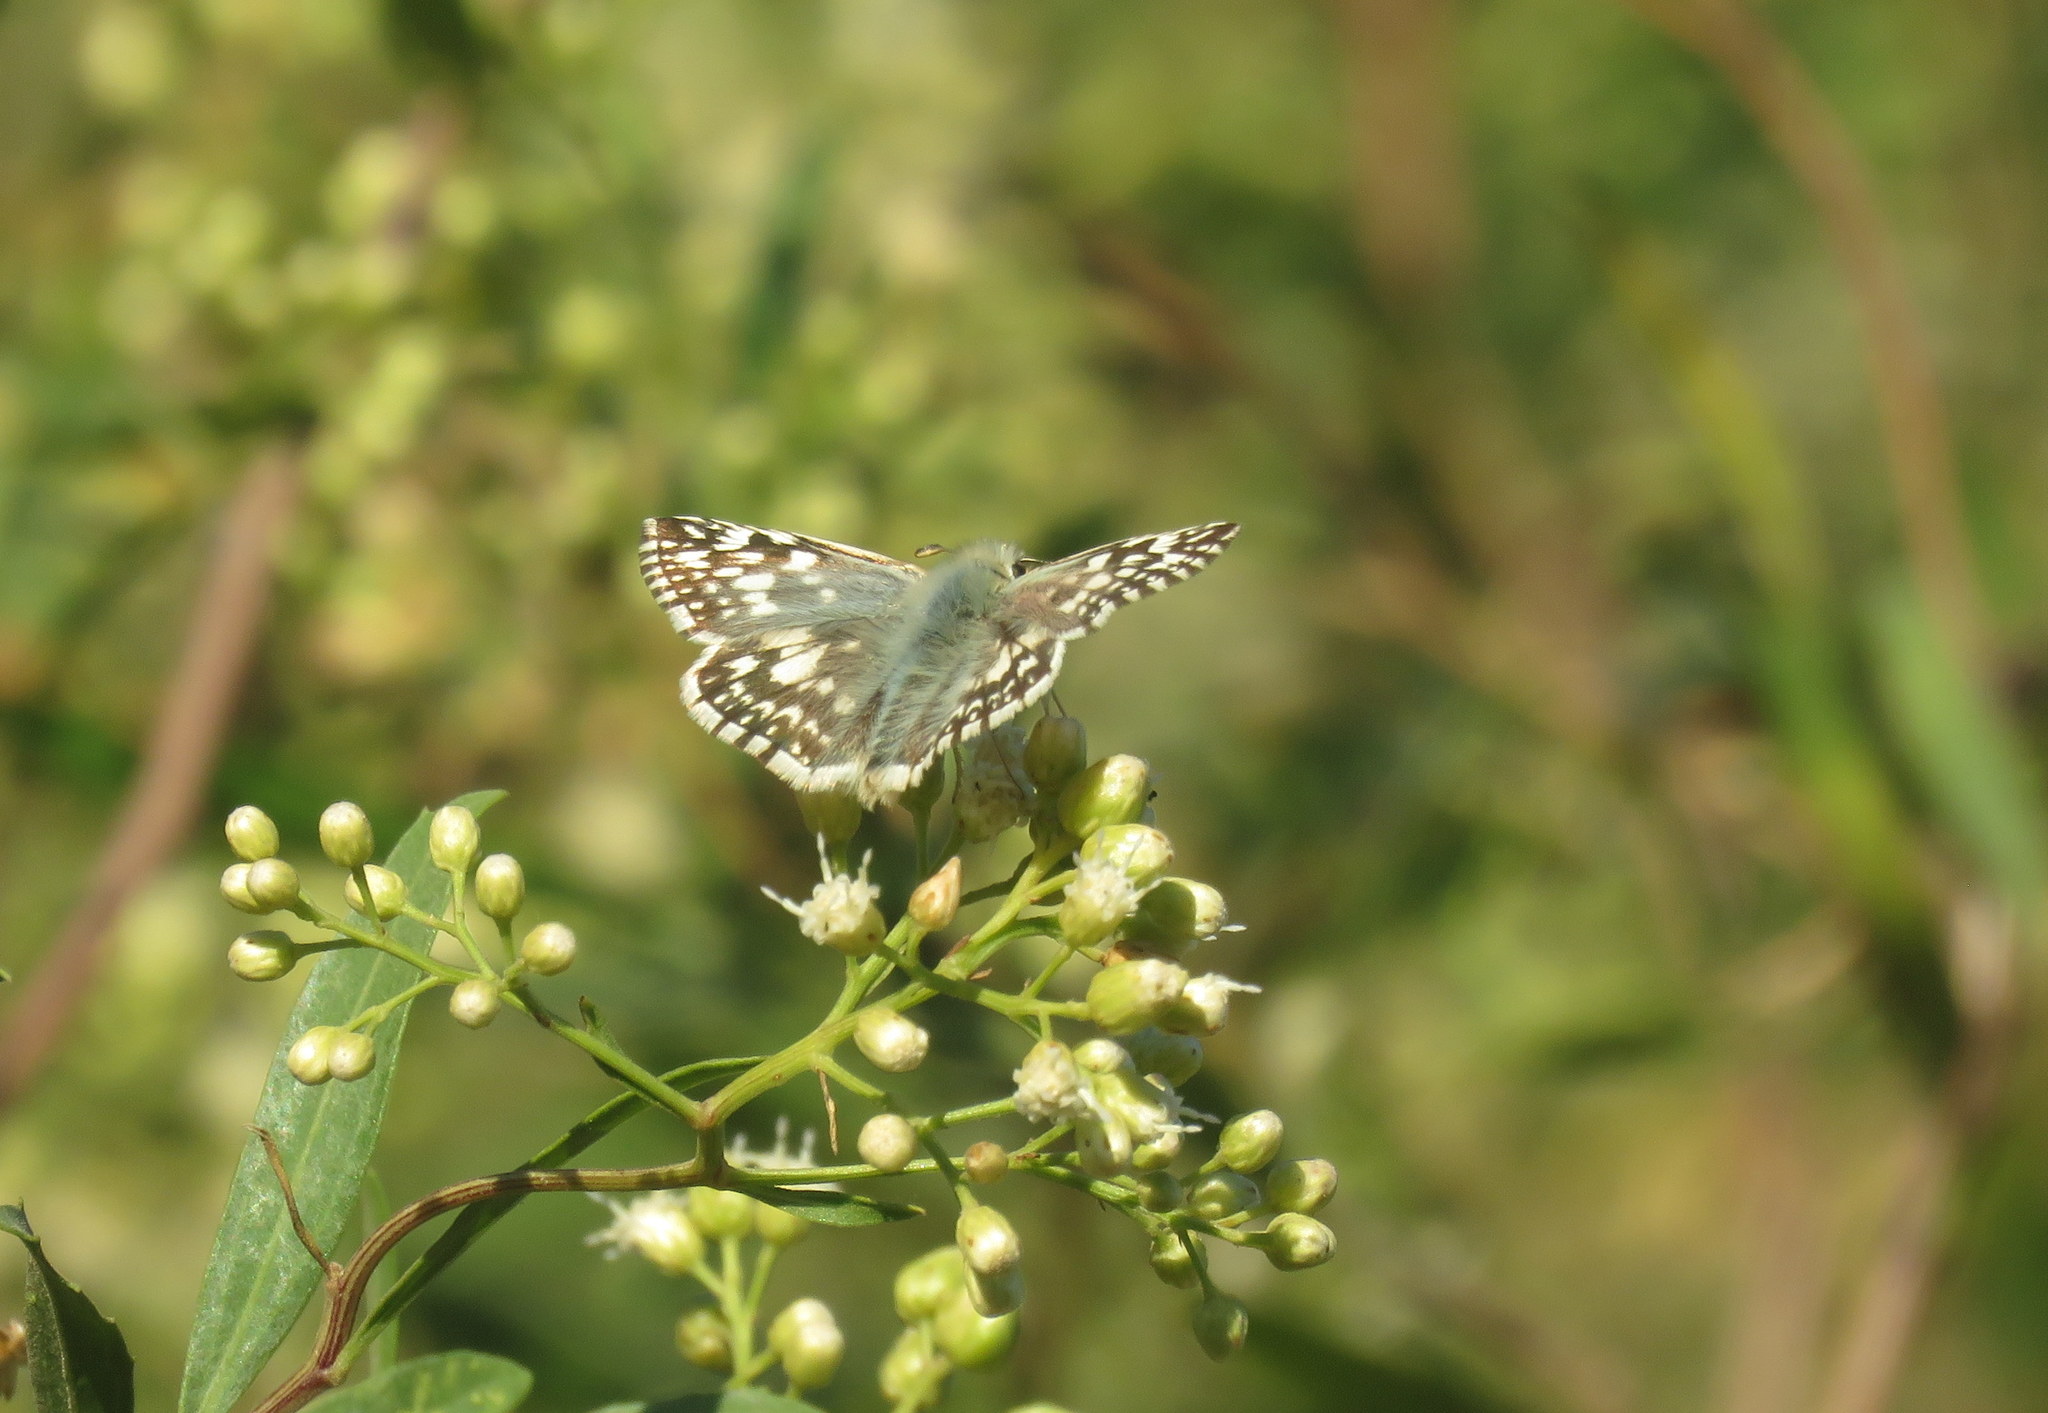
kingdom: Animalia
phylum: Arthropoda
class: Insecta
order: Lepidoptera
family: Hesperiidae
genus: Heliopetes
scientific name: Heliopetes americanus
